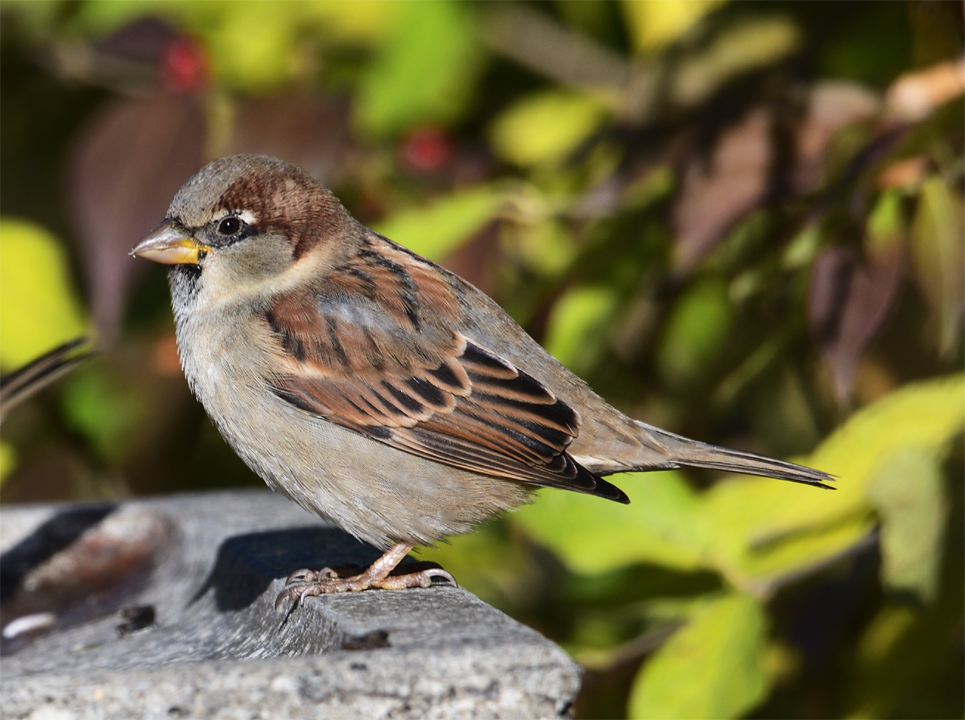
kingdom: Animalia
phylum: Chordata
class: Aves
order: Passeriformes
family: Passeridae
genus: Passer
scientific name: Passer domesticus
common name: House sparrow
